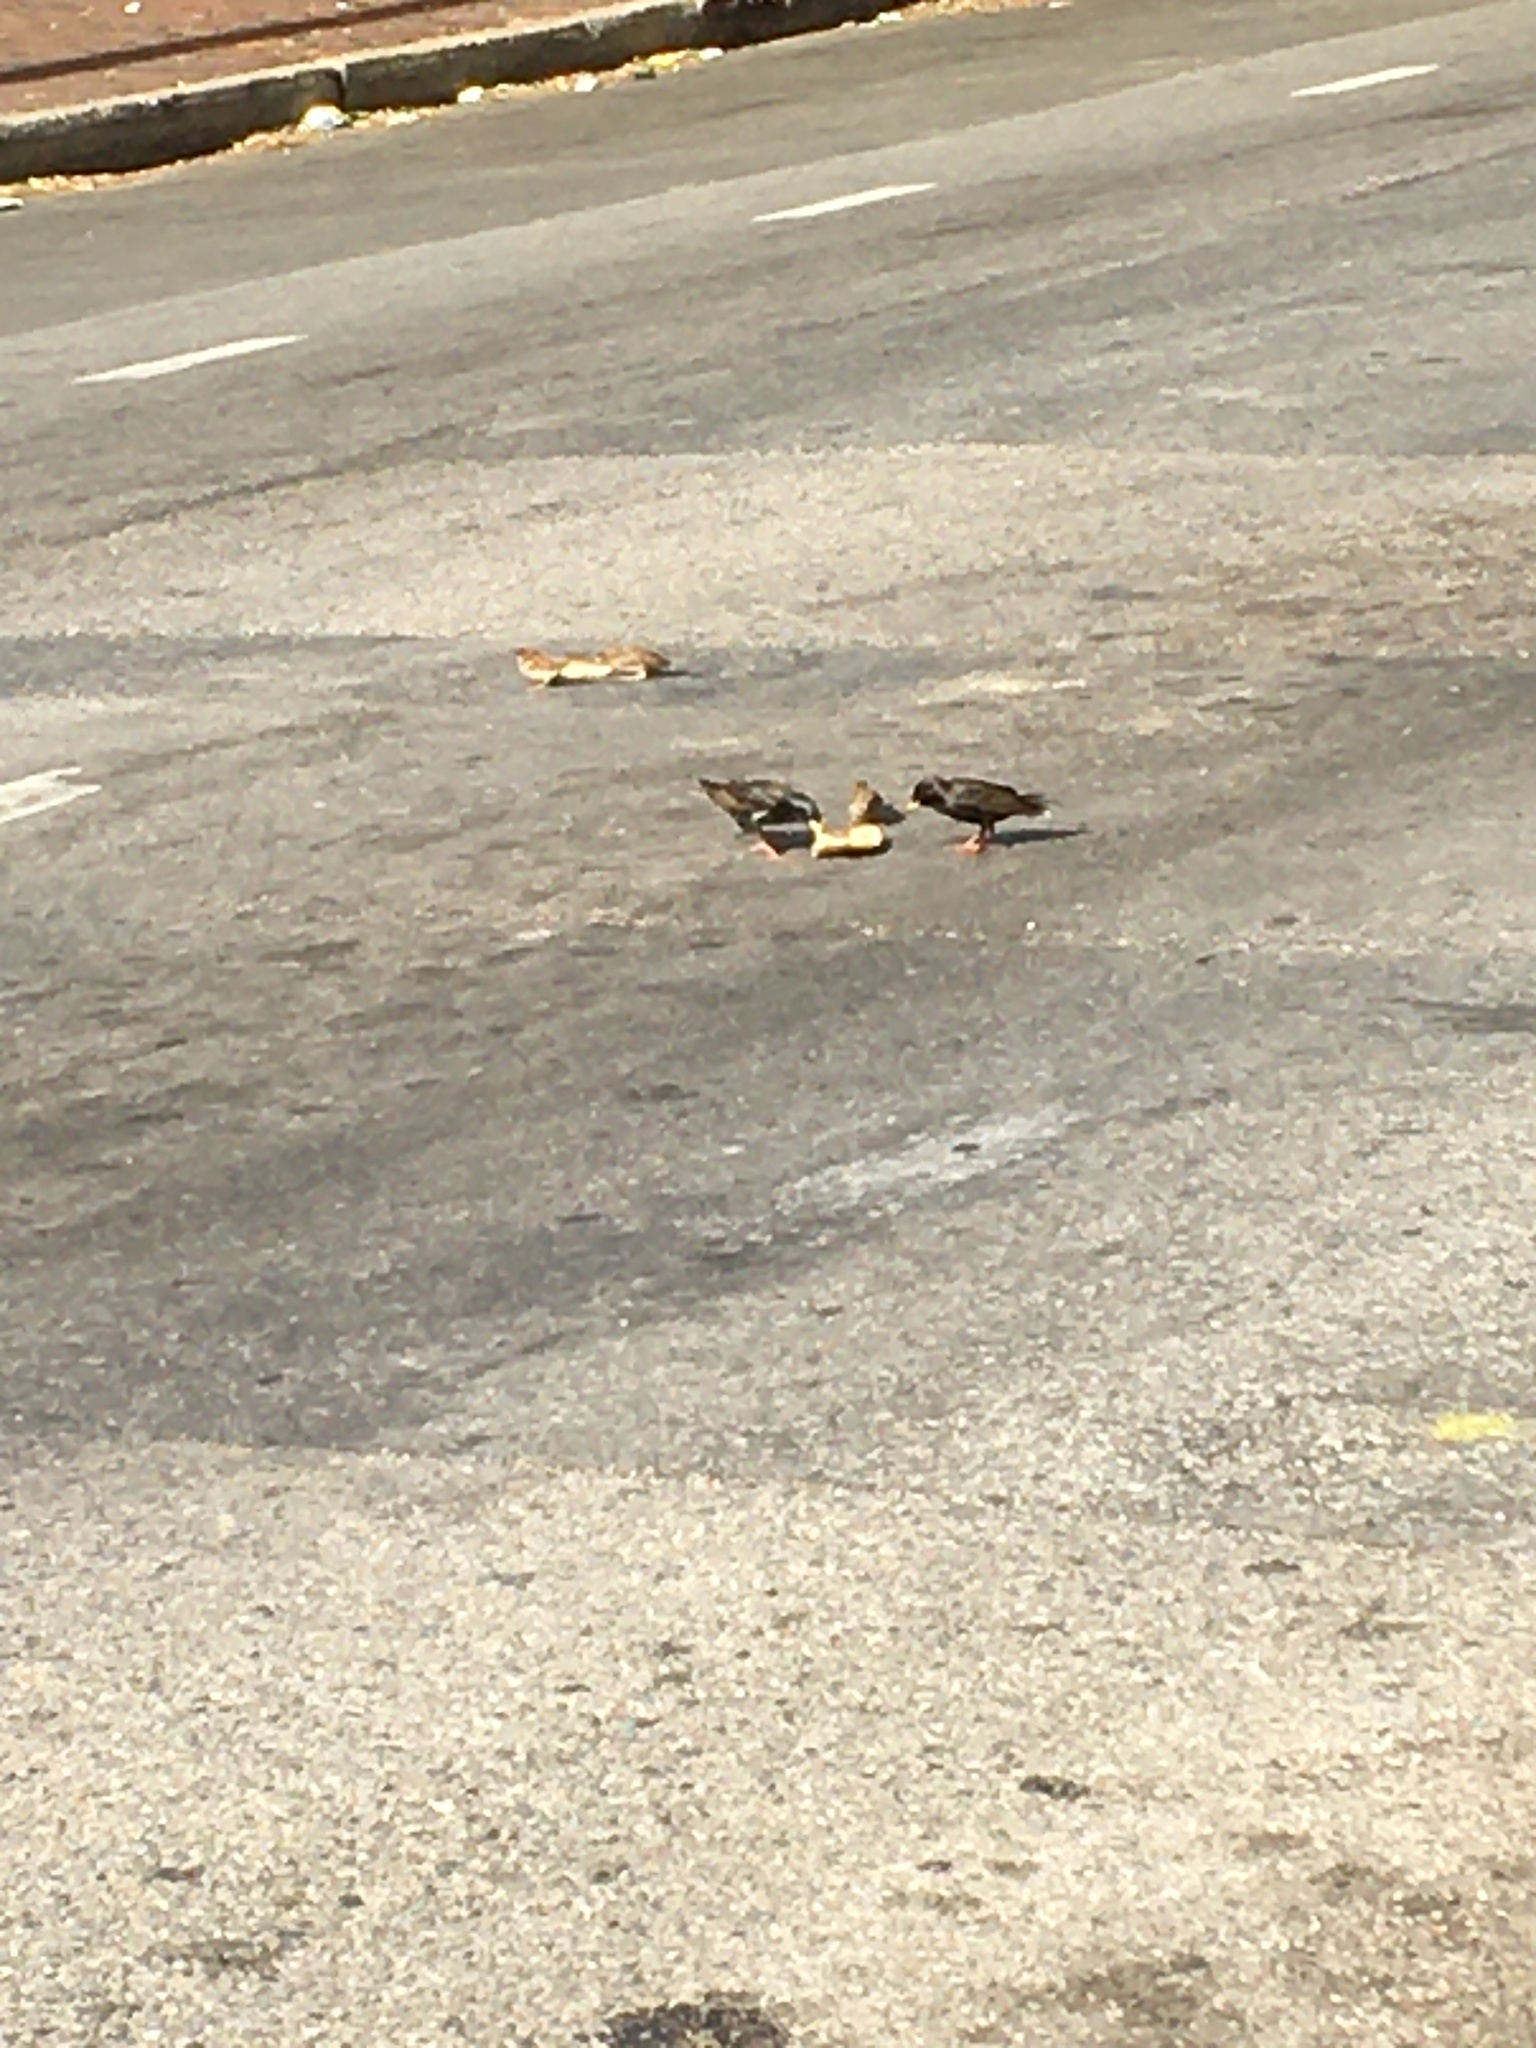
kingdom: Animalia
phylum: Chordata
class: Aves
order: Passeriformes
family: Sturnidae
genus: Sturnus
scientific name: Sturnus vulgaris
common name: Common starling
